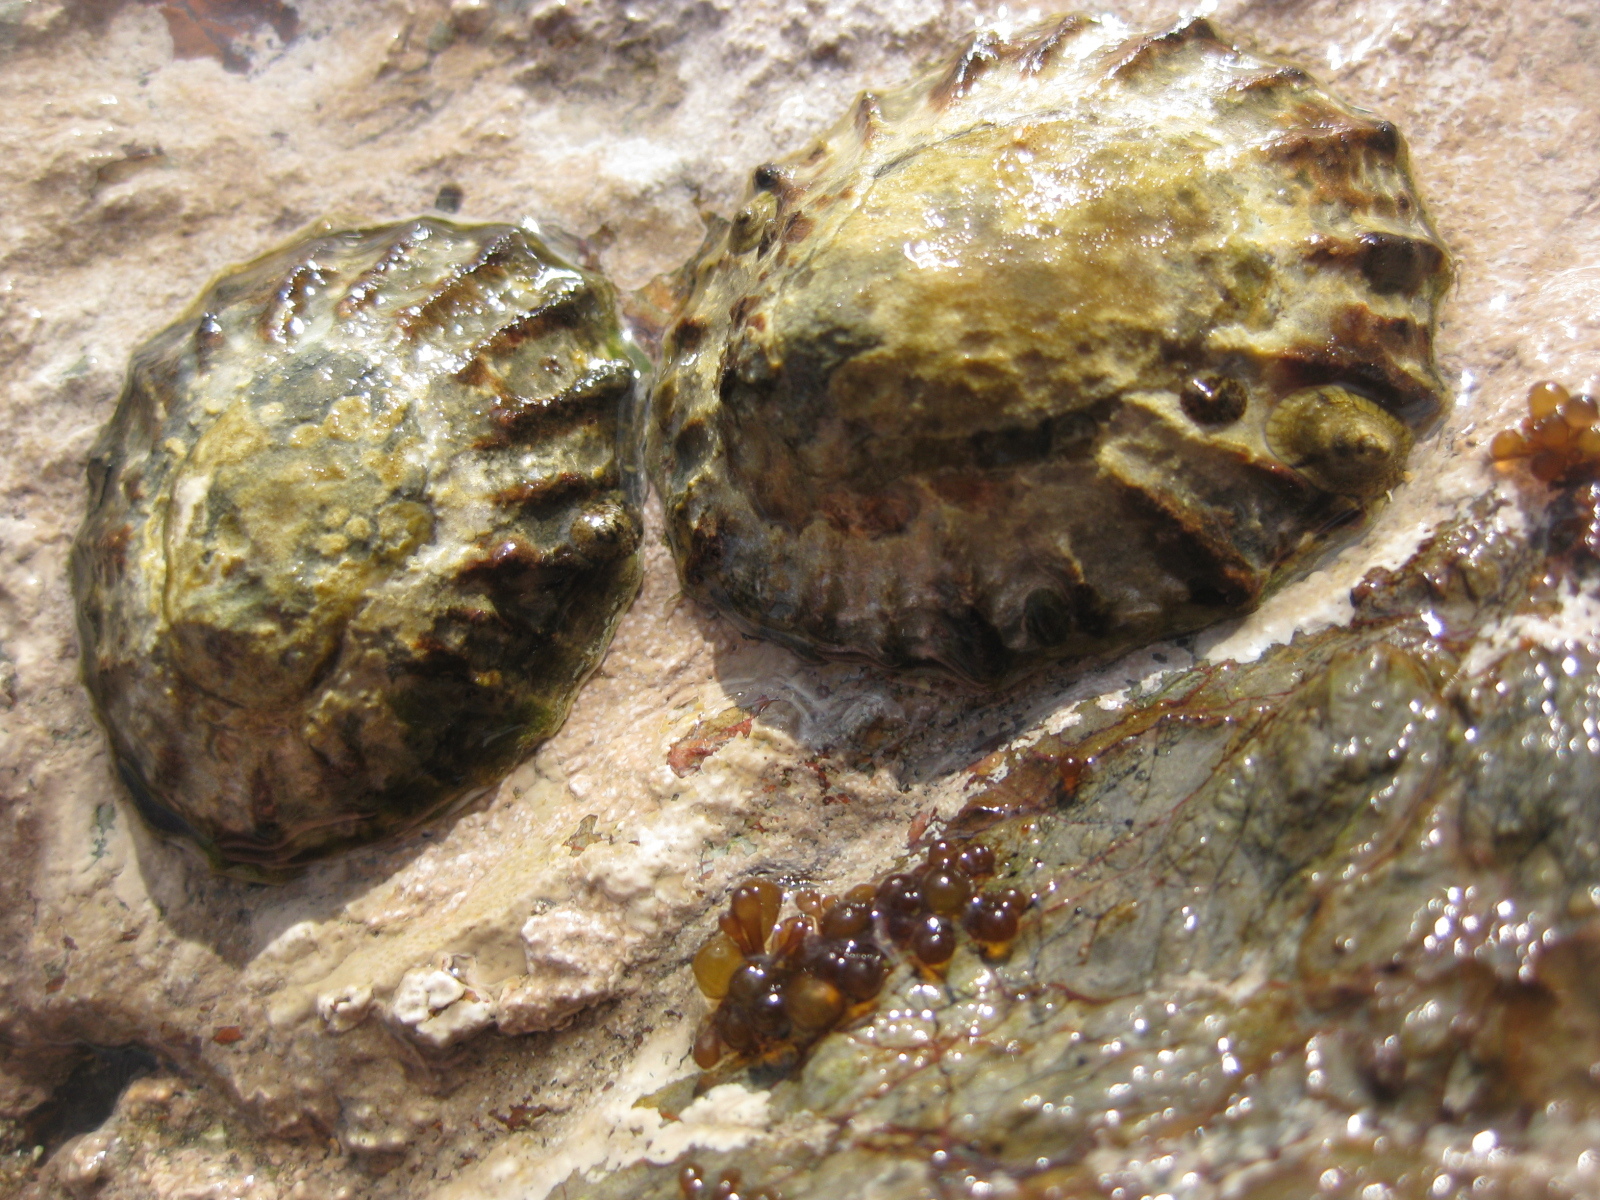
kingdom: Animalia
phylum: Mollusca
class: Gastropoda
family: Nacellidae
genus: Cellana
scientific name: Cellana radians
